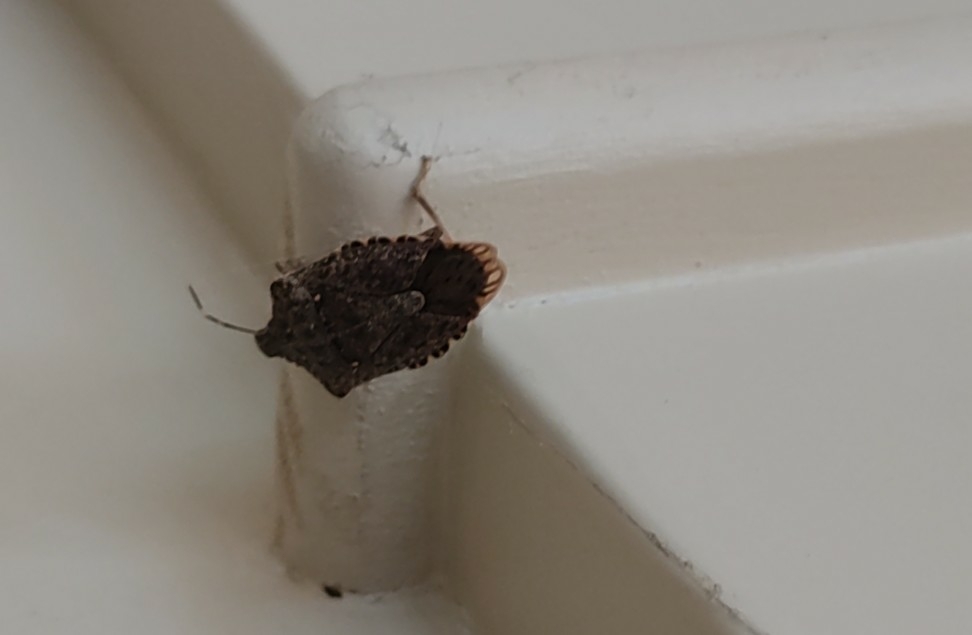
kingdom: Animalia
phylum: Arthropoda
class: Insecta
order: Hemiptera
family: Pentatomidae
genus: Halyomorpha
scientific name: Halyomorpha halys
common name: Brown marmorated stink bug
